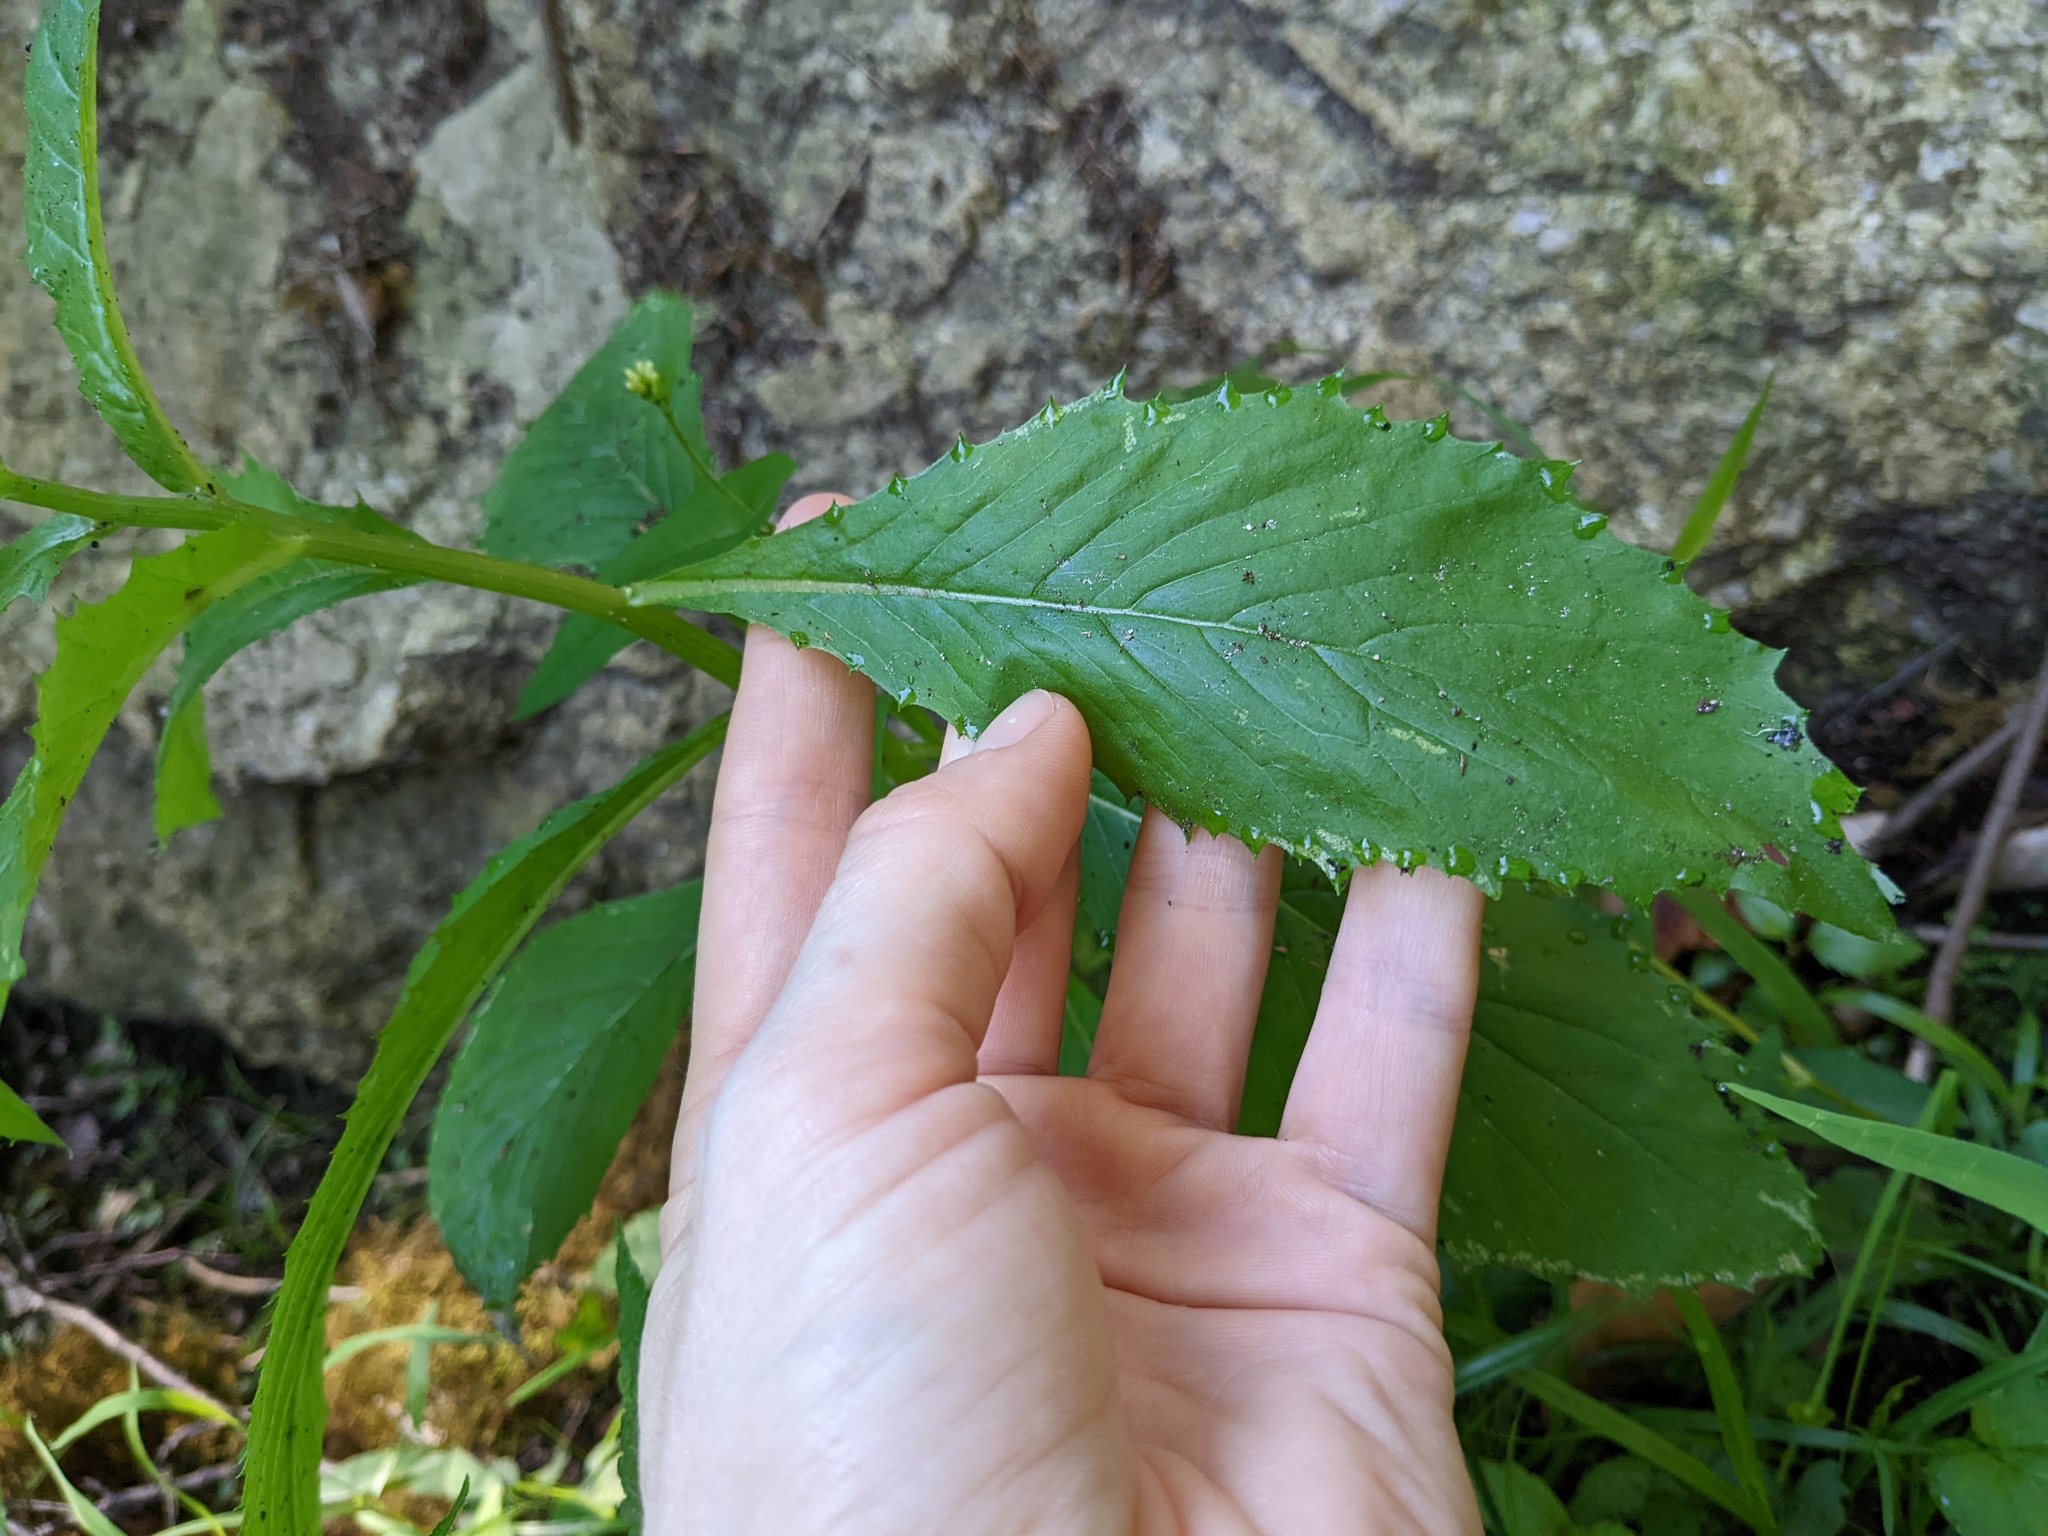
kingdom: Plantae
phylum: Tracheophyta
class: Magnoliopsida
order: Asterales
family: Asteraceae
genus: Erechtites
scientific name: Erechtites hieraciifolius
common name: American burnweed
